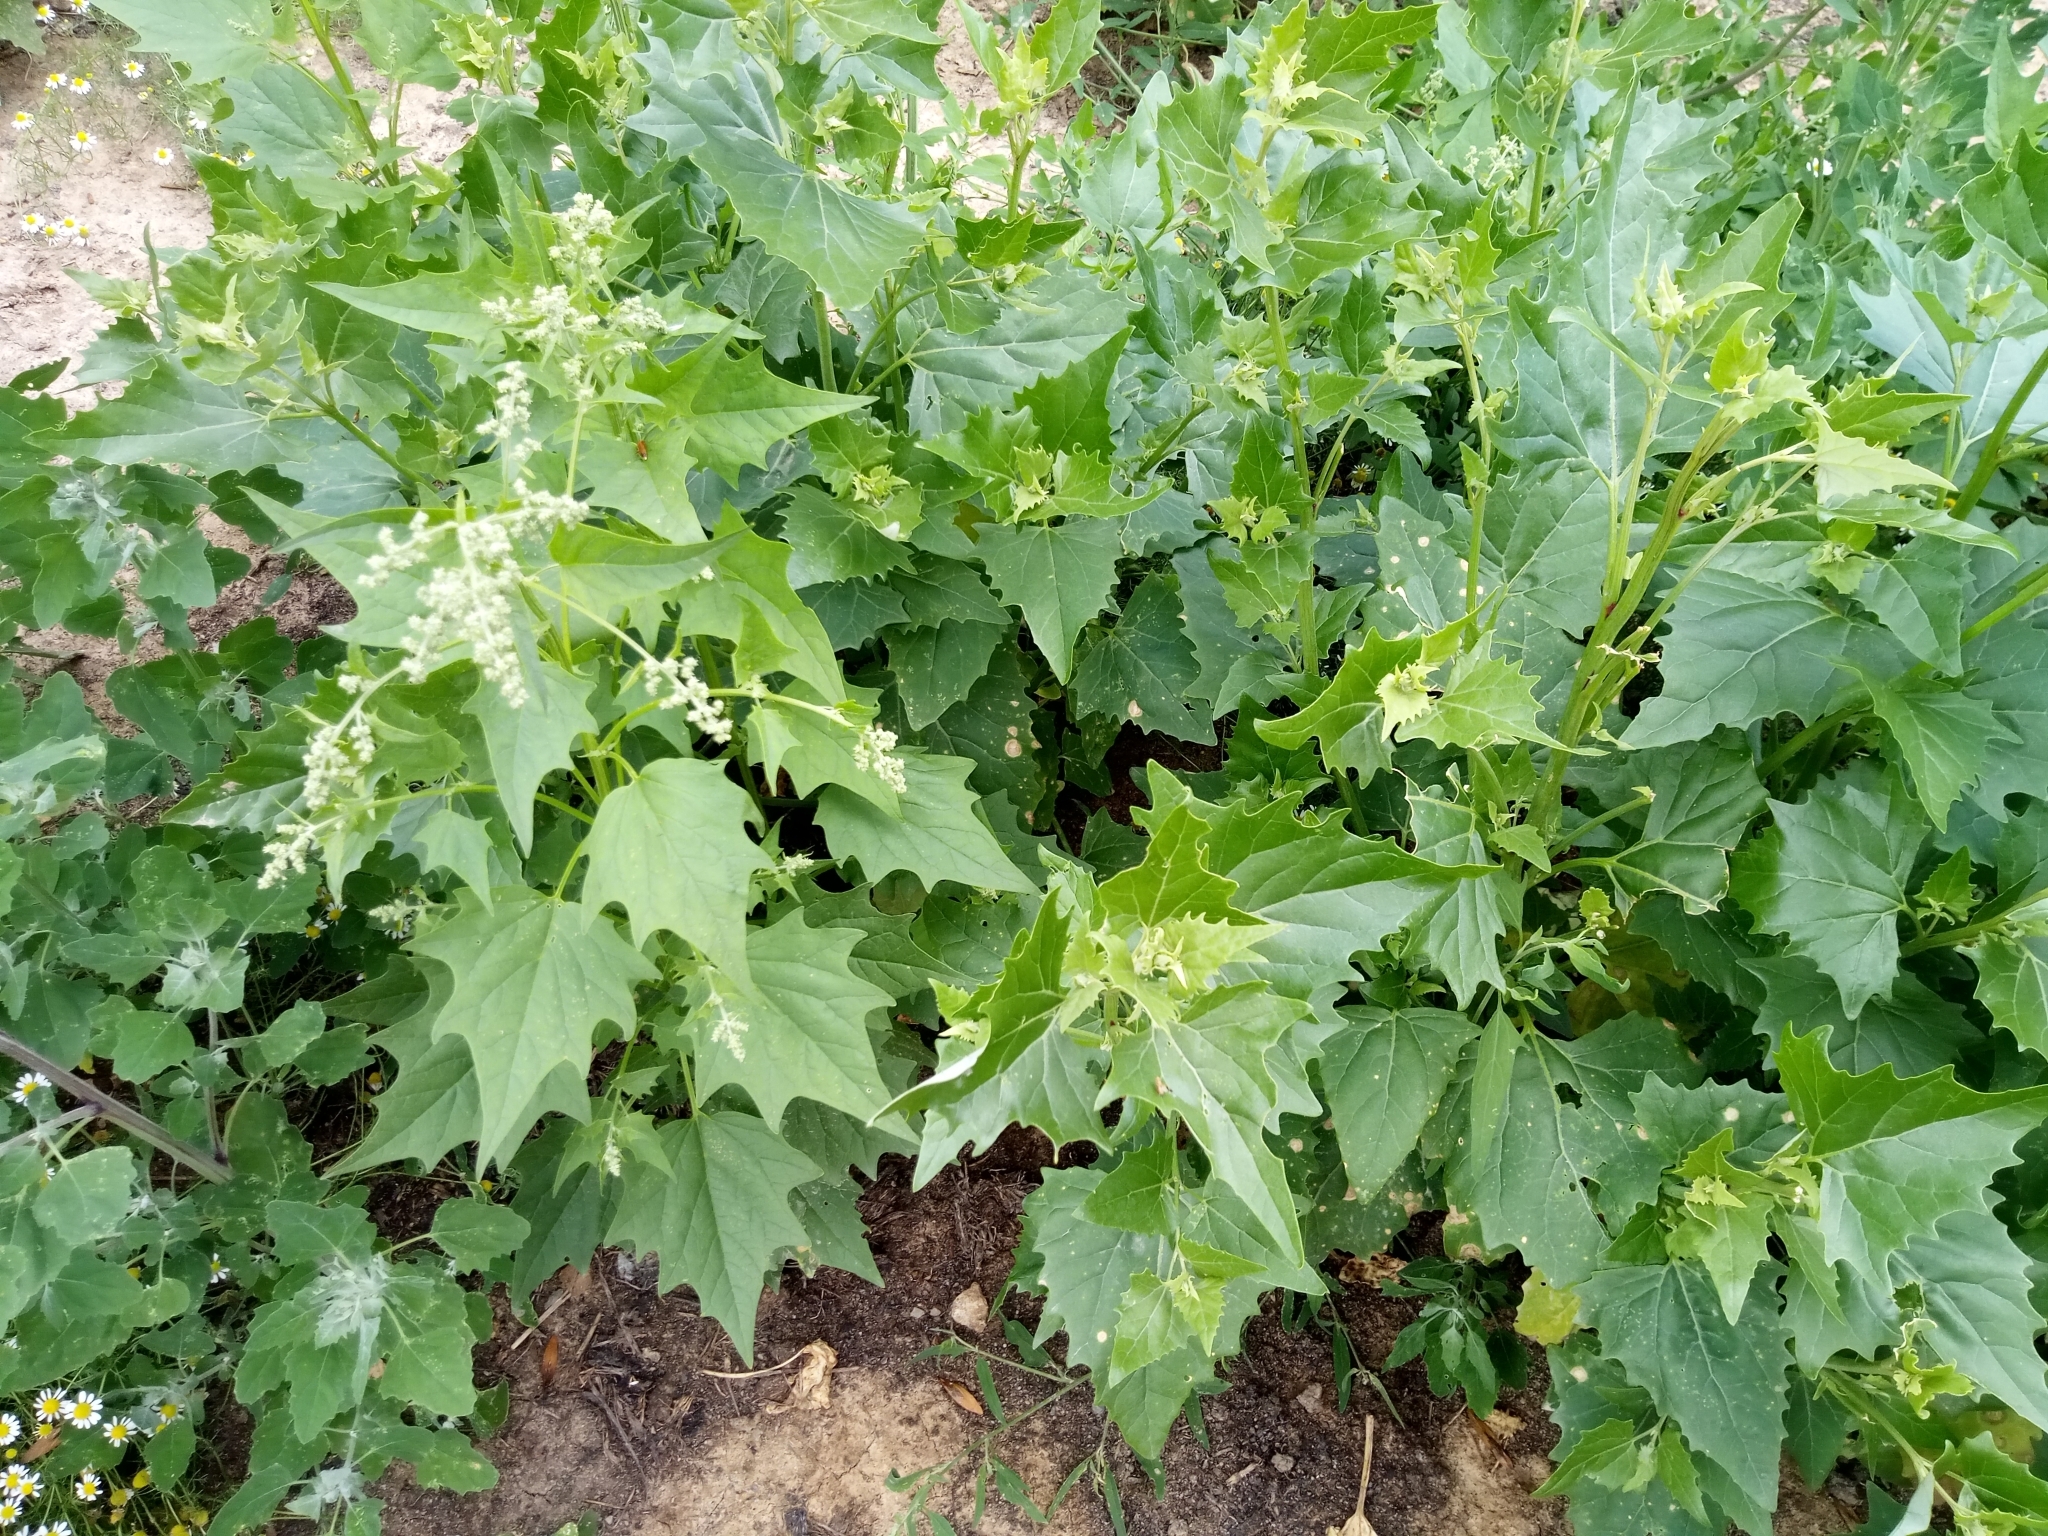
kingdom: Plantae
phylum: Tracheophyta
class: Magnoliopsida
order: Caryophyllales
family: Amaranthaceae
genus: Atriplex
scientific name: Atriplex sagittata
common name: Purple orache
